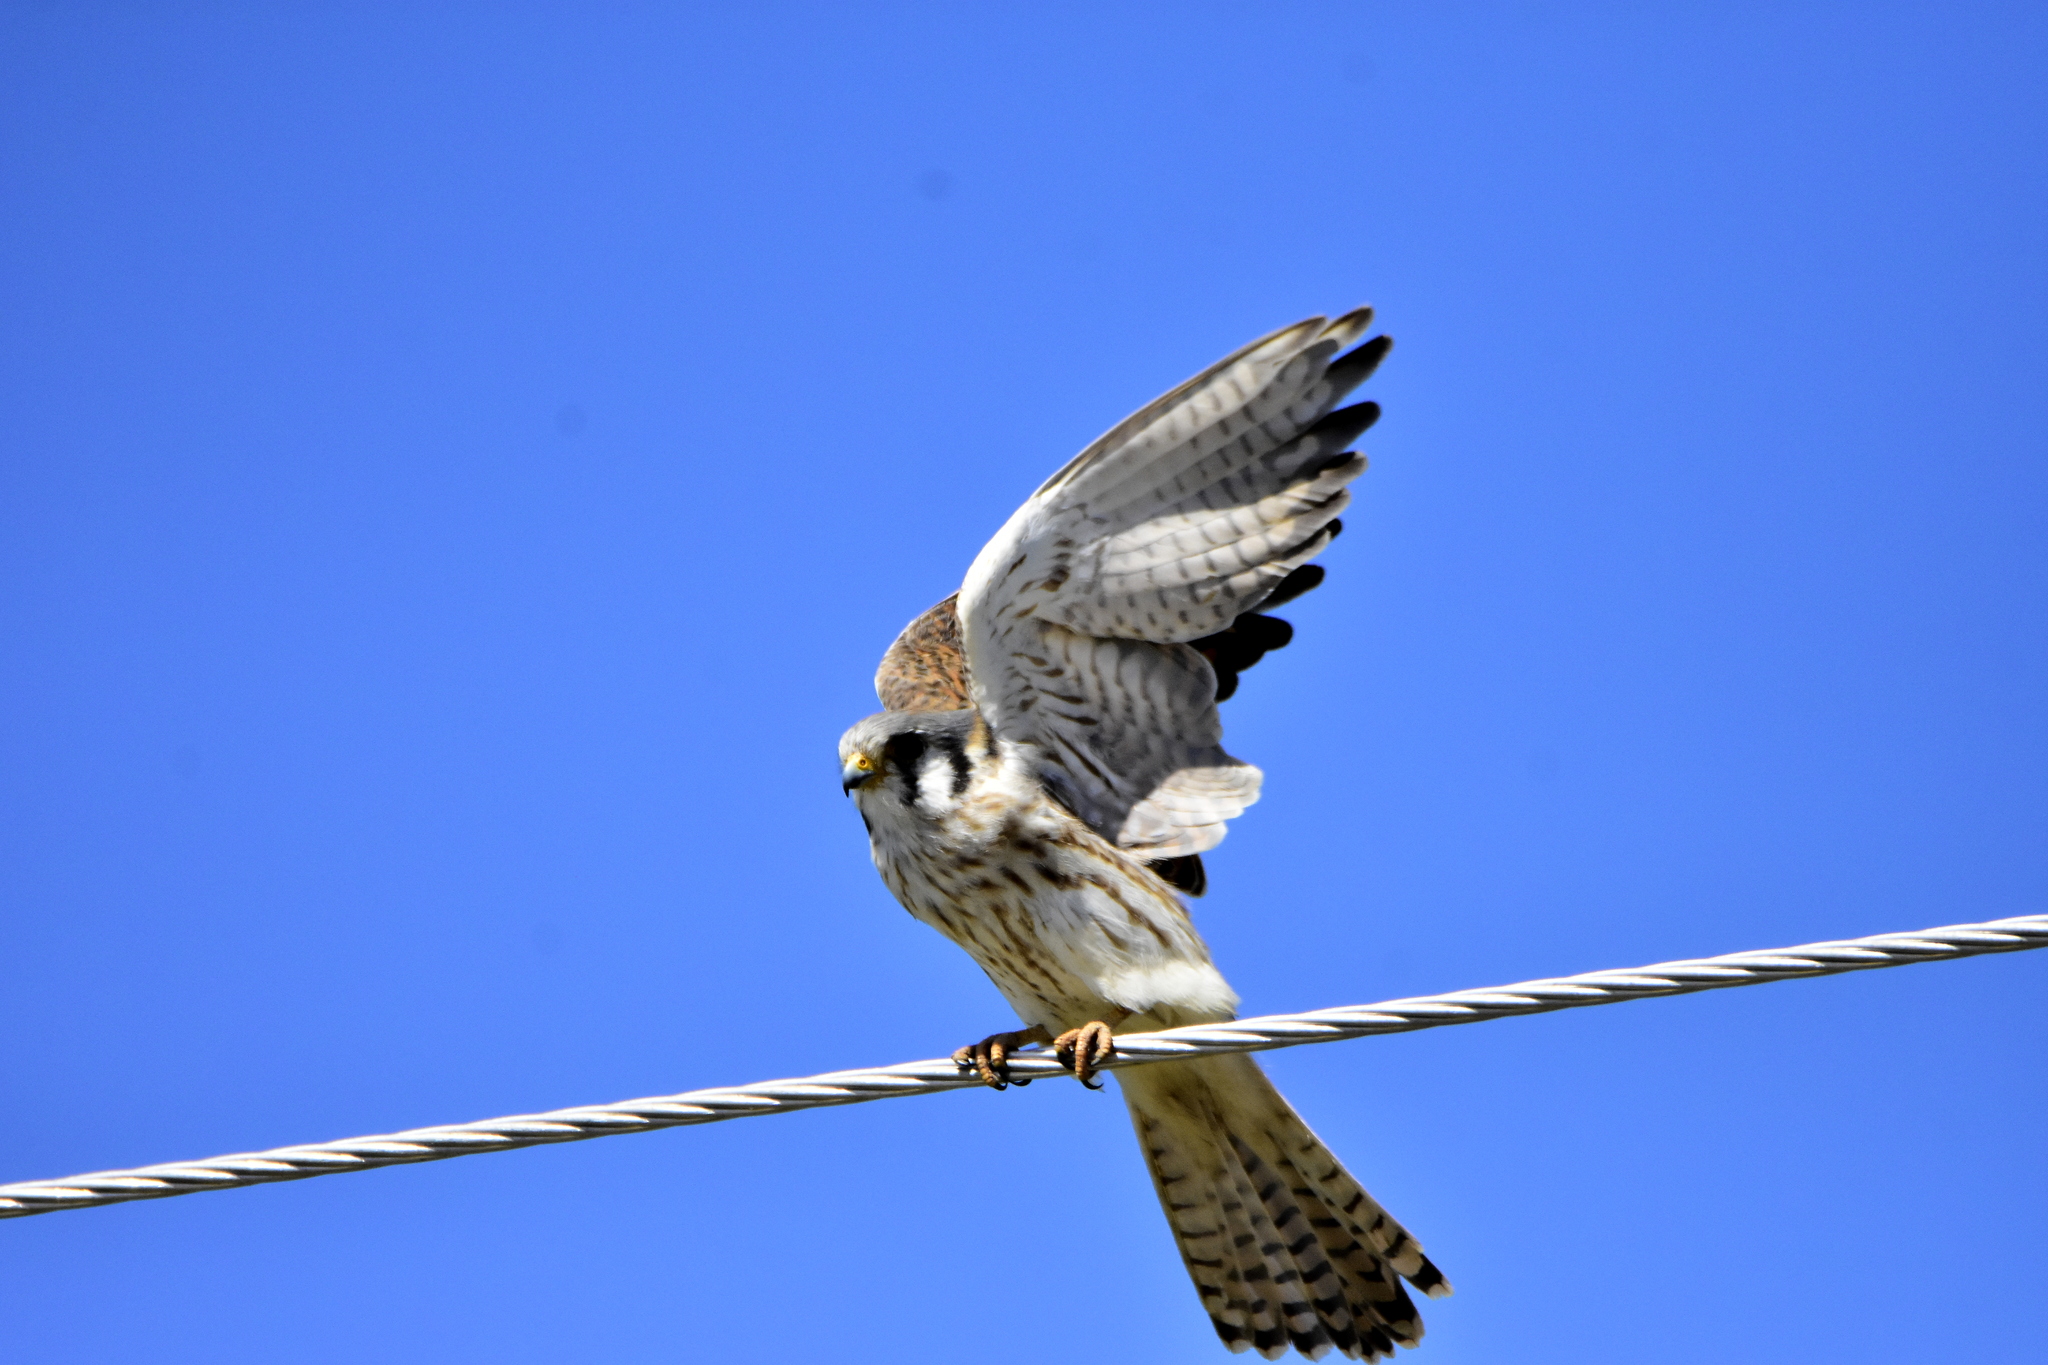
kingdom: Animalia
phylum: Chordata
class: Aves
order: Falconiformes
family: Falconidae
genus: Falco
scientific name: Falco sparverius
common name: American kestrel
